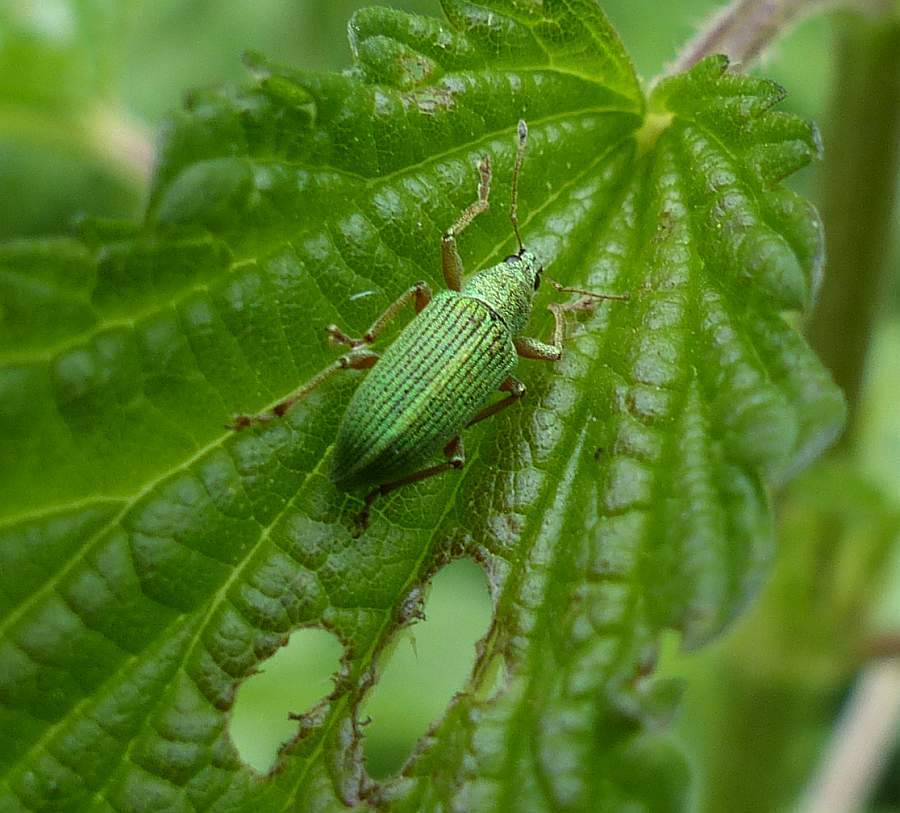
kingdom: Animalia
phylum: Arthropoda
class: Insecta
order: Coleoptera
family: Curculionidae
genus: Polydrusus
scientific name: Polydrusus formosus
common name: Weevil
